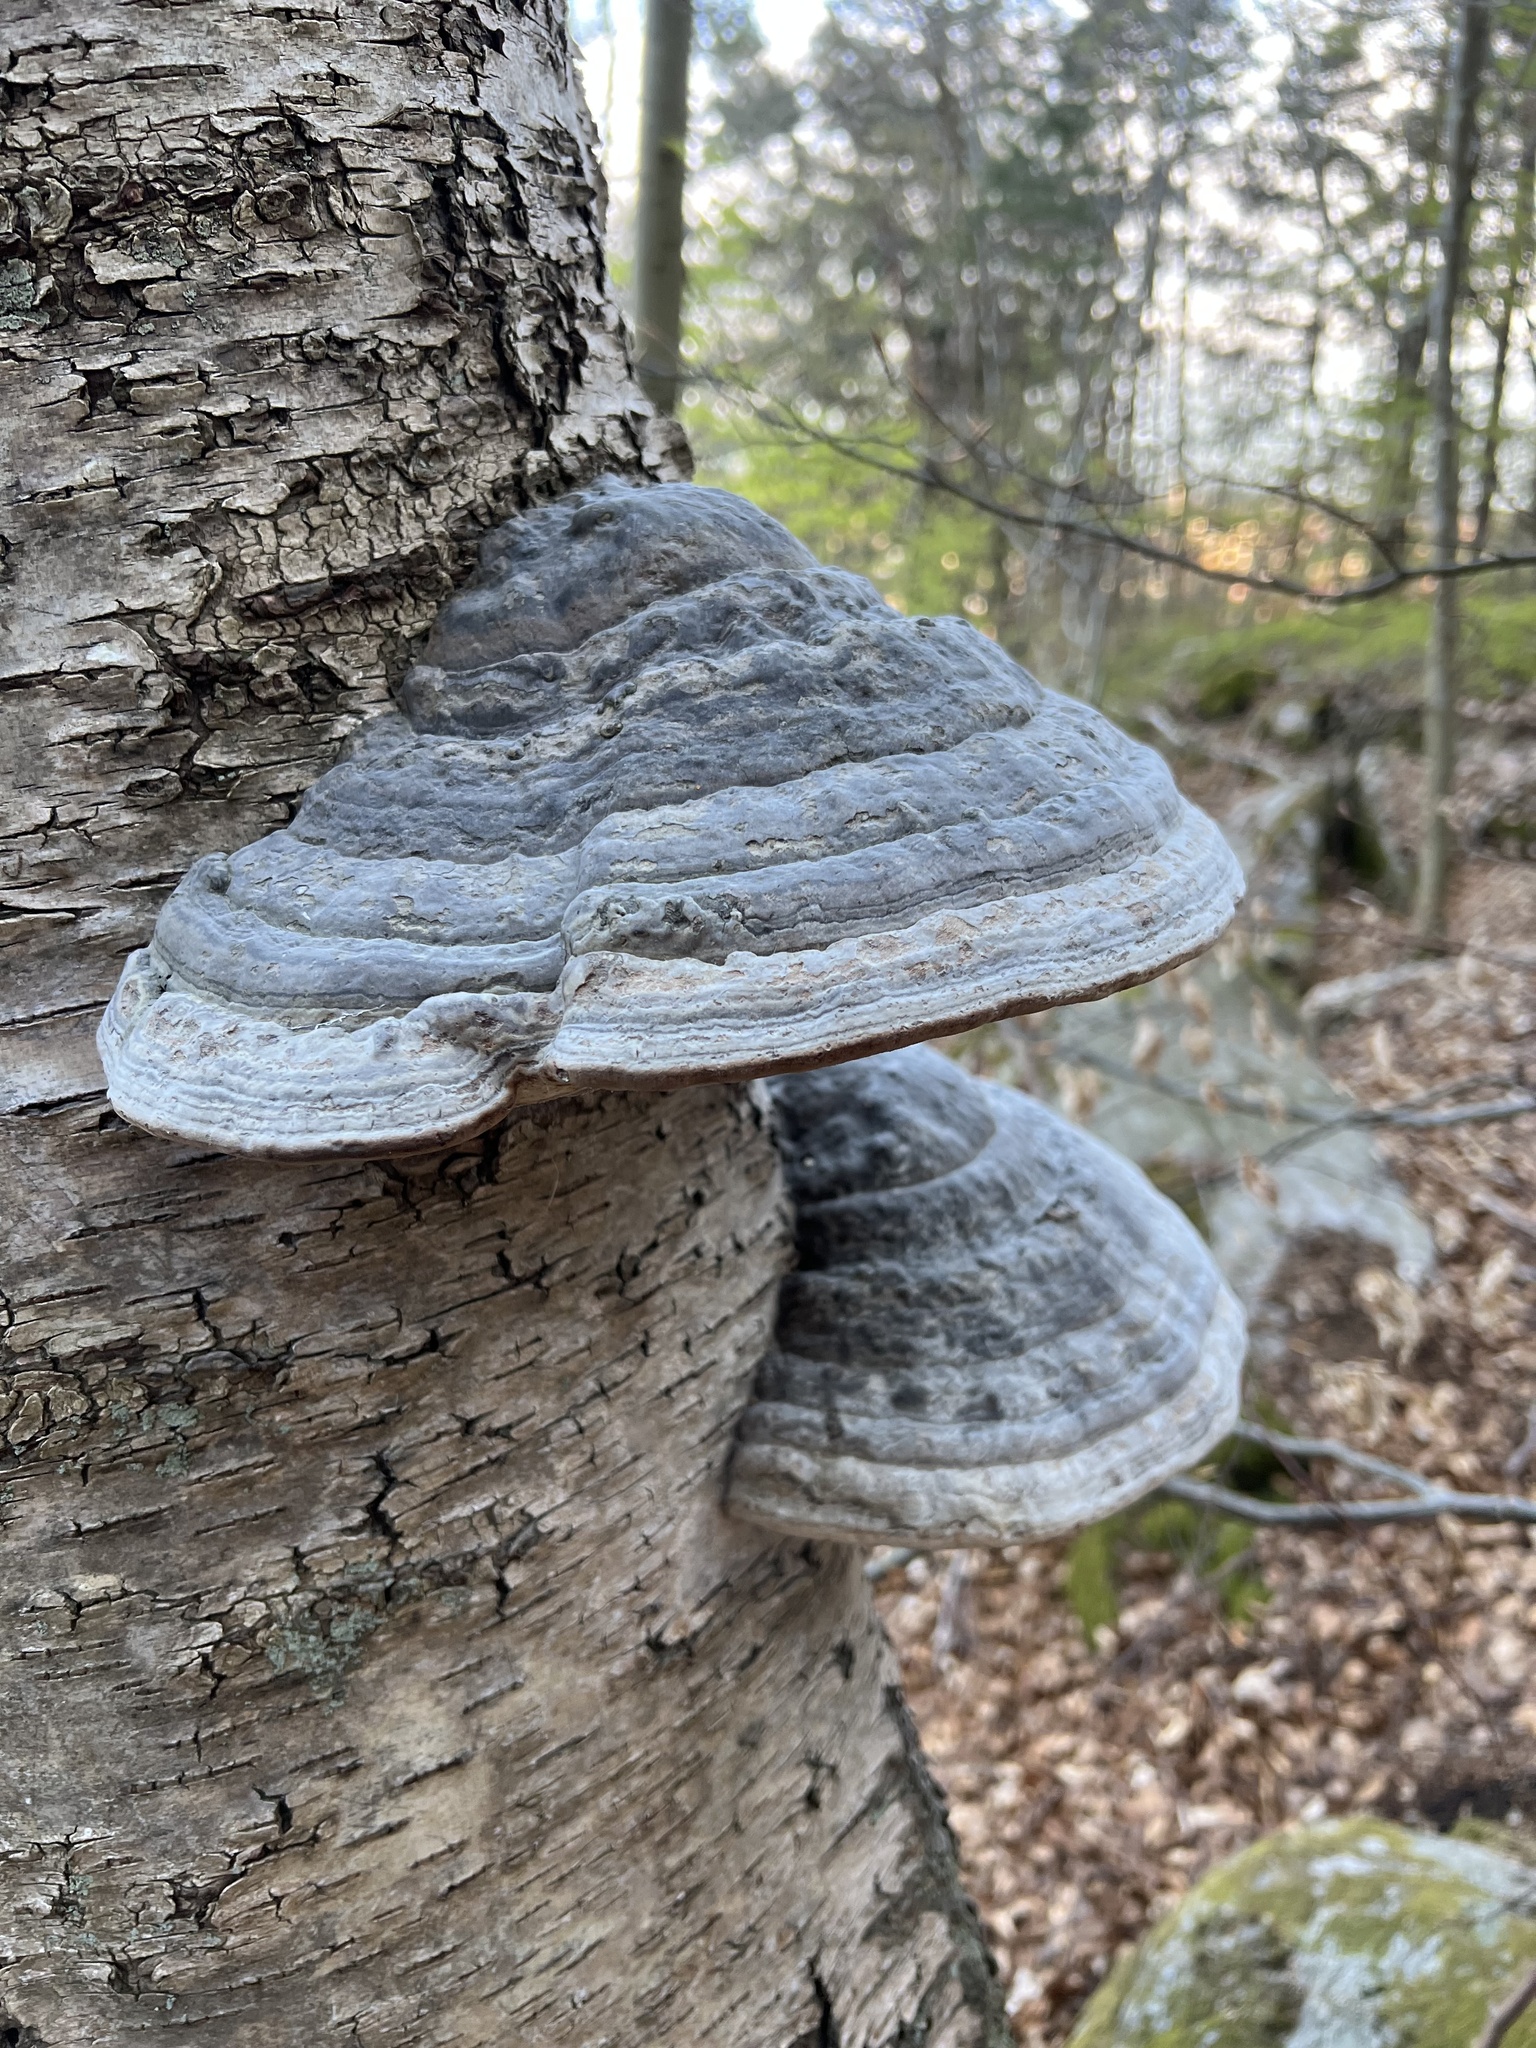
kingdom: Fungi
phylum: Basidiomycota
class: Agaricomycetes
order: Polyporales
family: Polyporaceae
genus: Fomes
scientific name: Fomes fomentarius
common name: Hoof fungus
